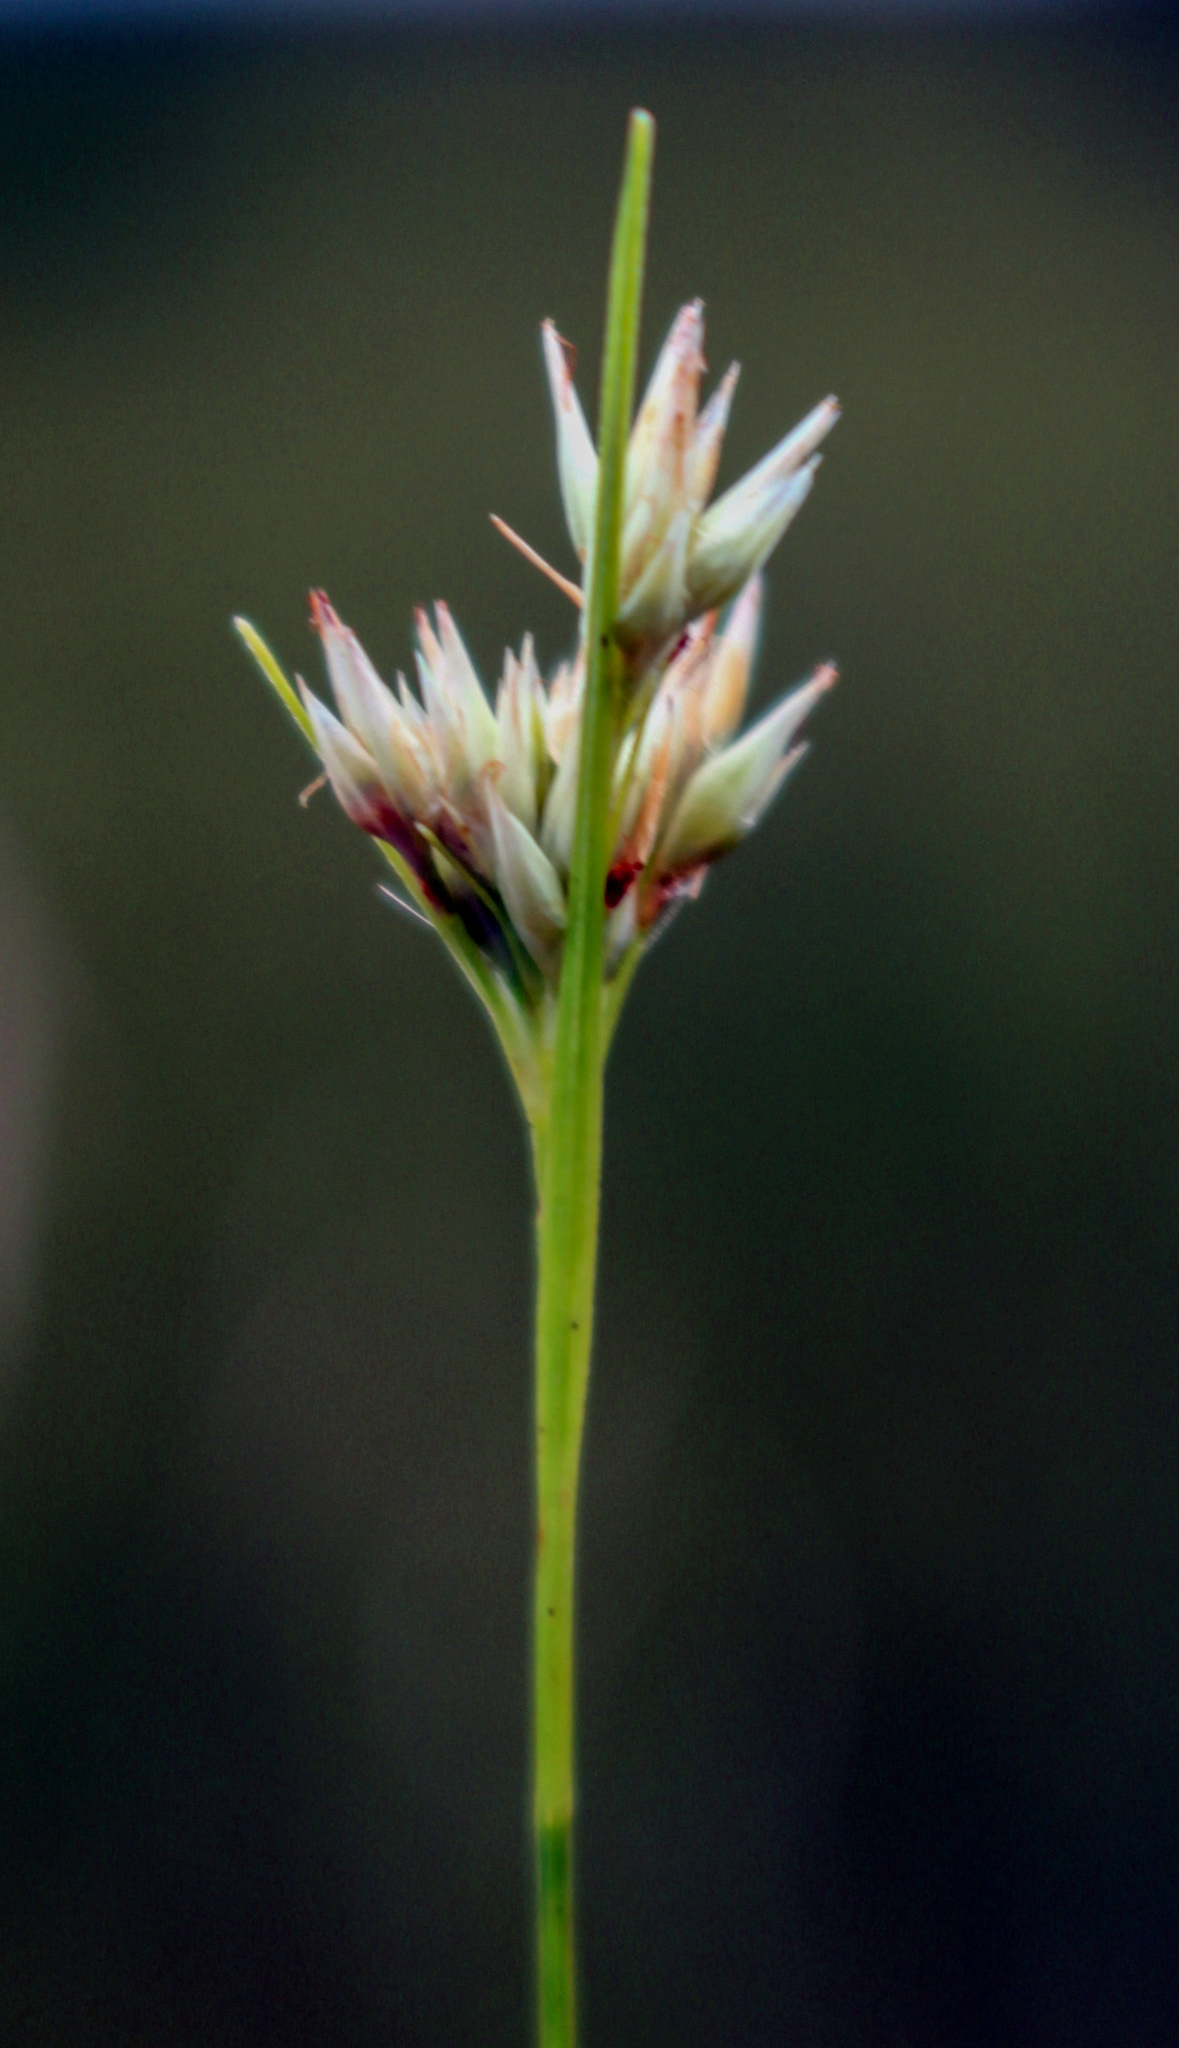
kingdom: Plantae
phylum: Tracheophyta
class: Liliopsida
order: Poales
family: Cyperaceae
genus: Rhynchospora
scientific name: Rhynchospora alba
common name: White beak-sedge
